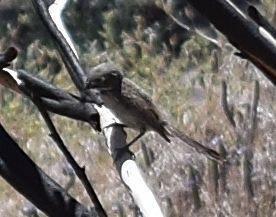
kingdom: Animalia
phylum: Chordata
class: Aves
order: Passeriformes
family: Passerellidae
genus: Artemisiospiza
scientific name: Artemisiospiza belli
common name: Bell's sparrow
